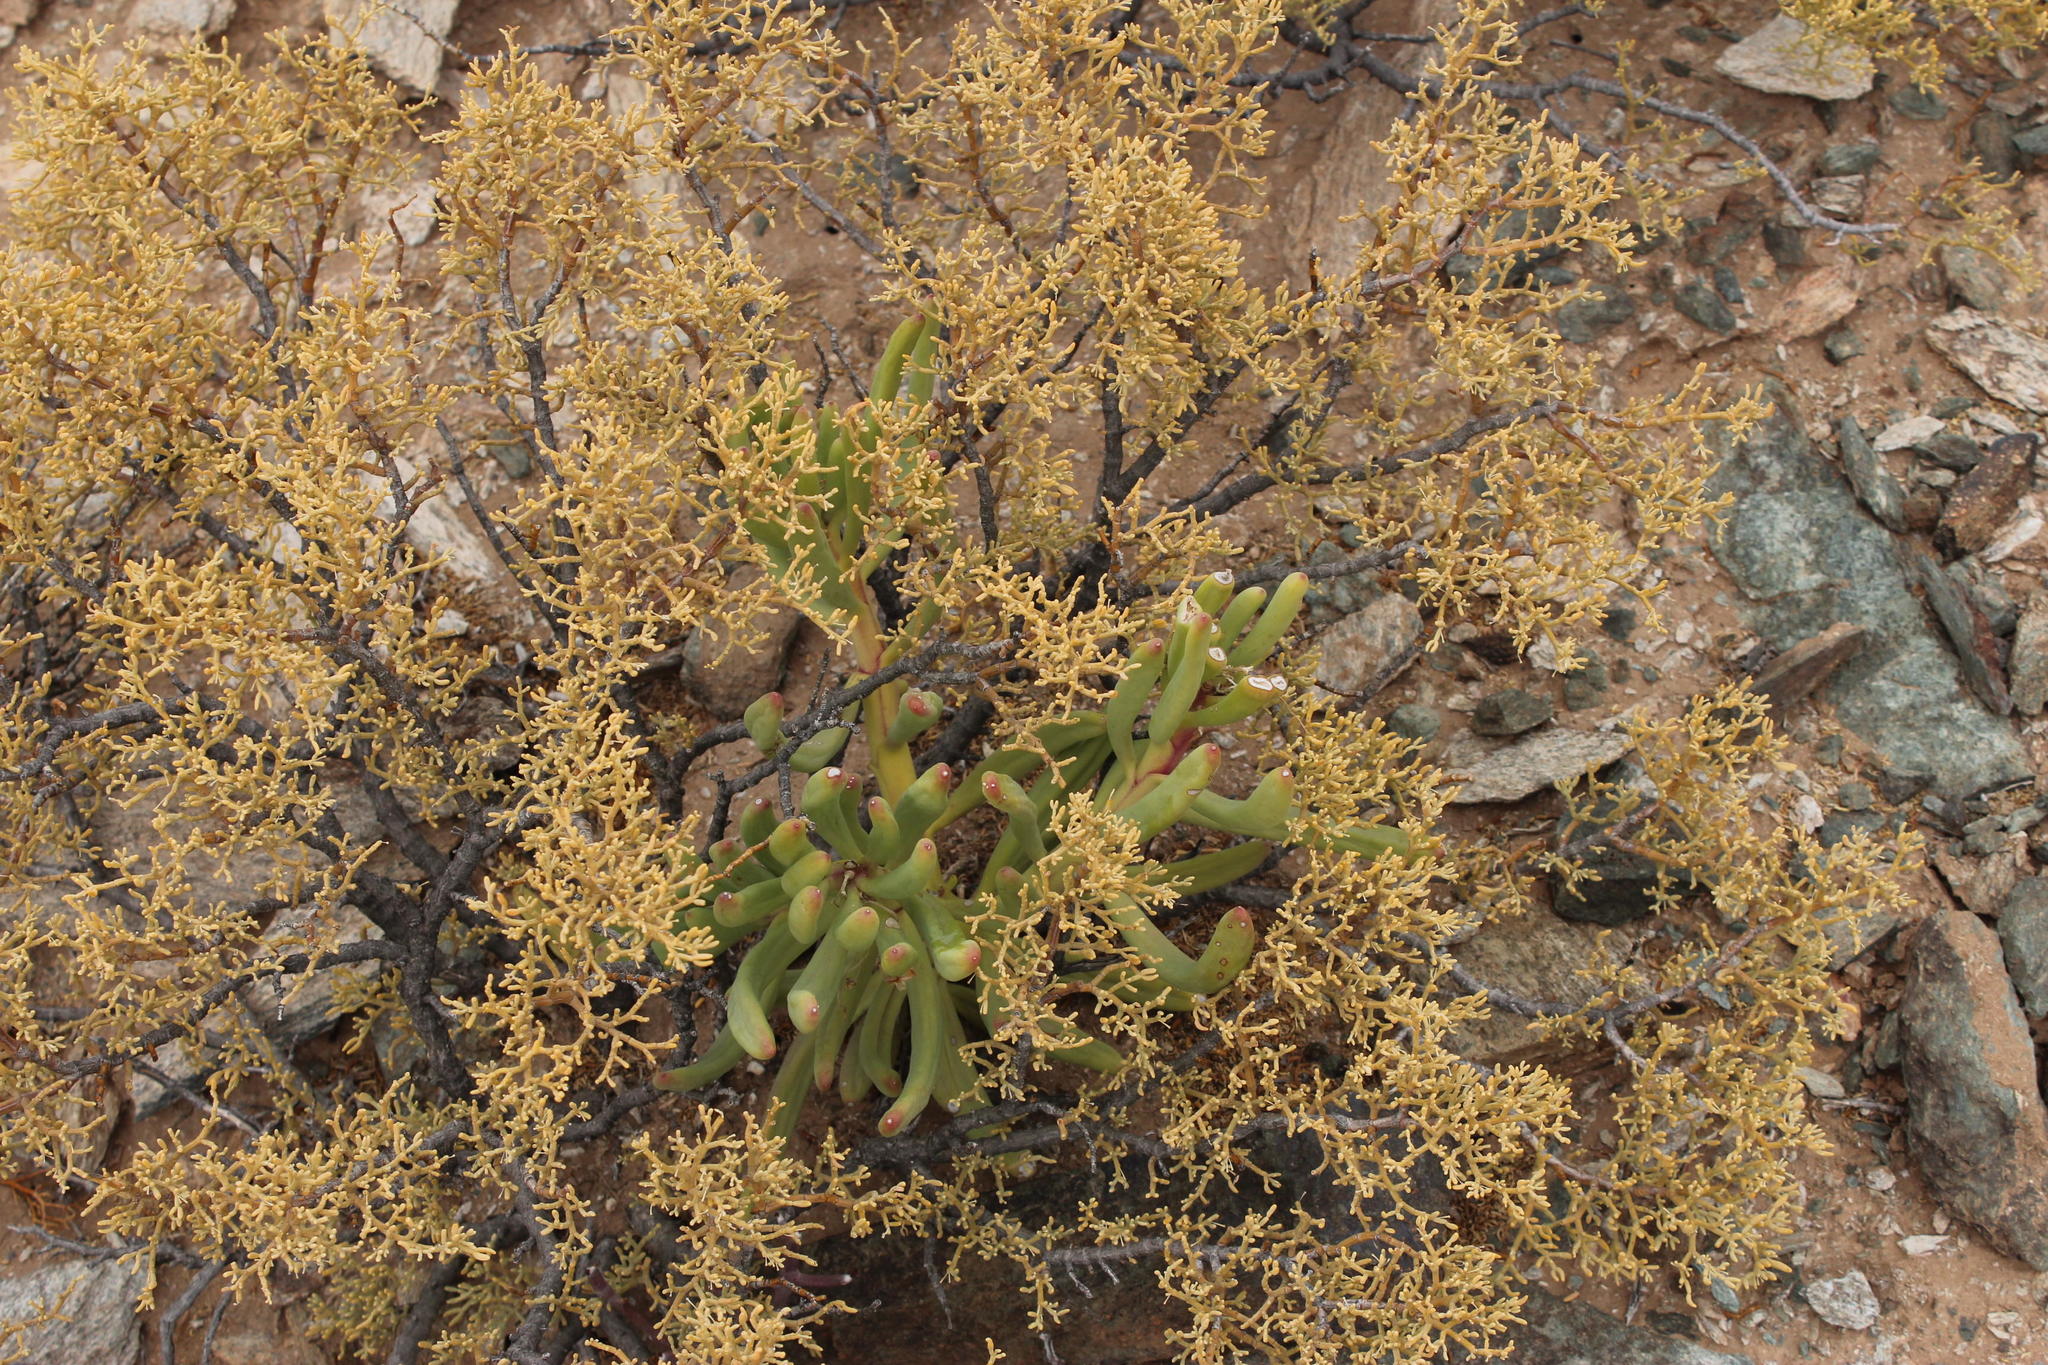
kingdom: Plantae
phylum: Tracheophyta
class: Magnoliopsida
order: Asterales
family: Asteraceae
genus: Crassothonna
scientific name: Crassothonna opima
